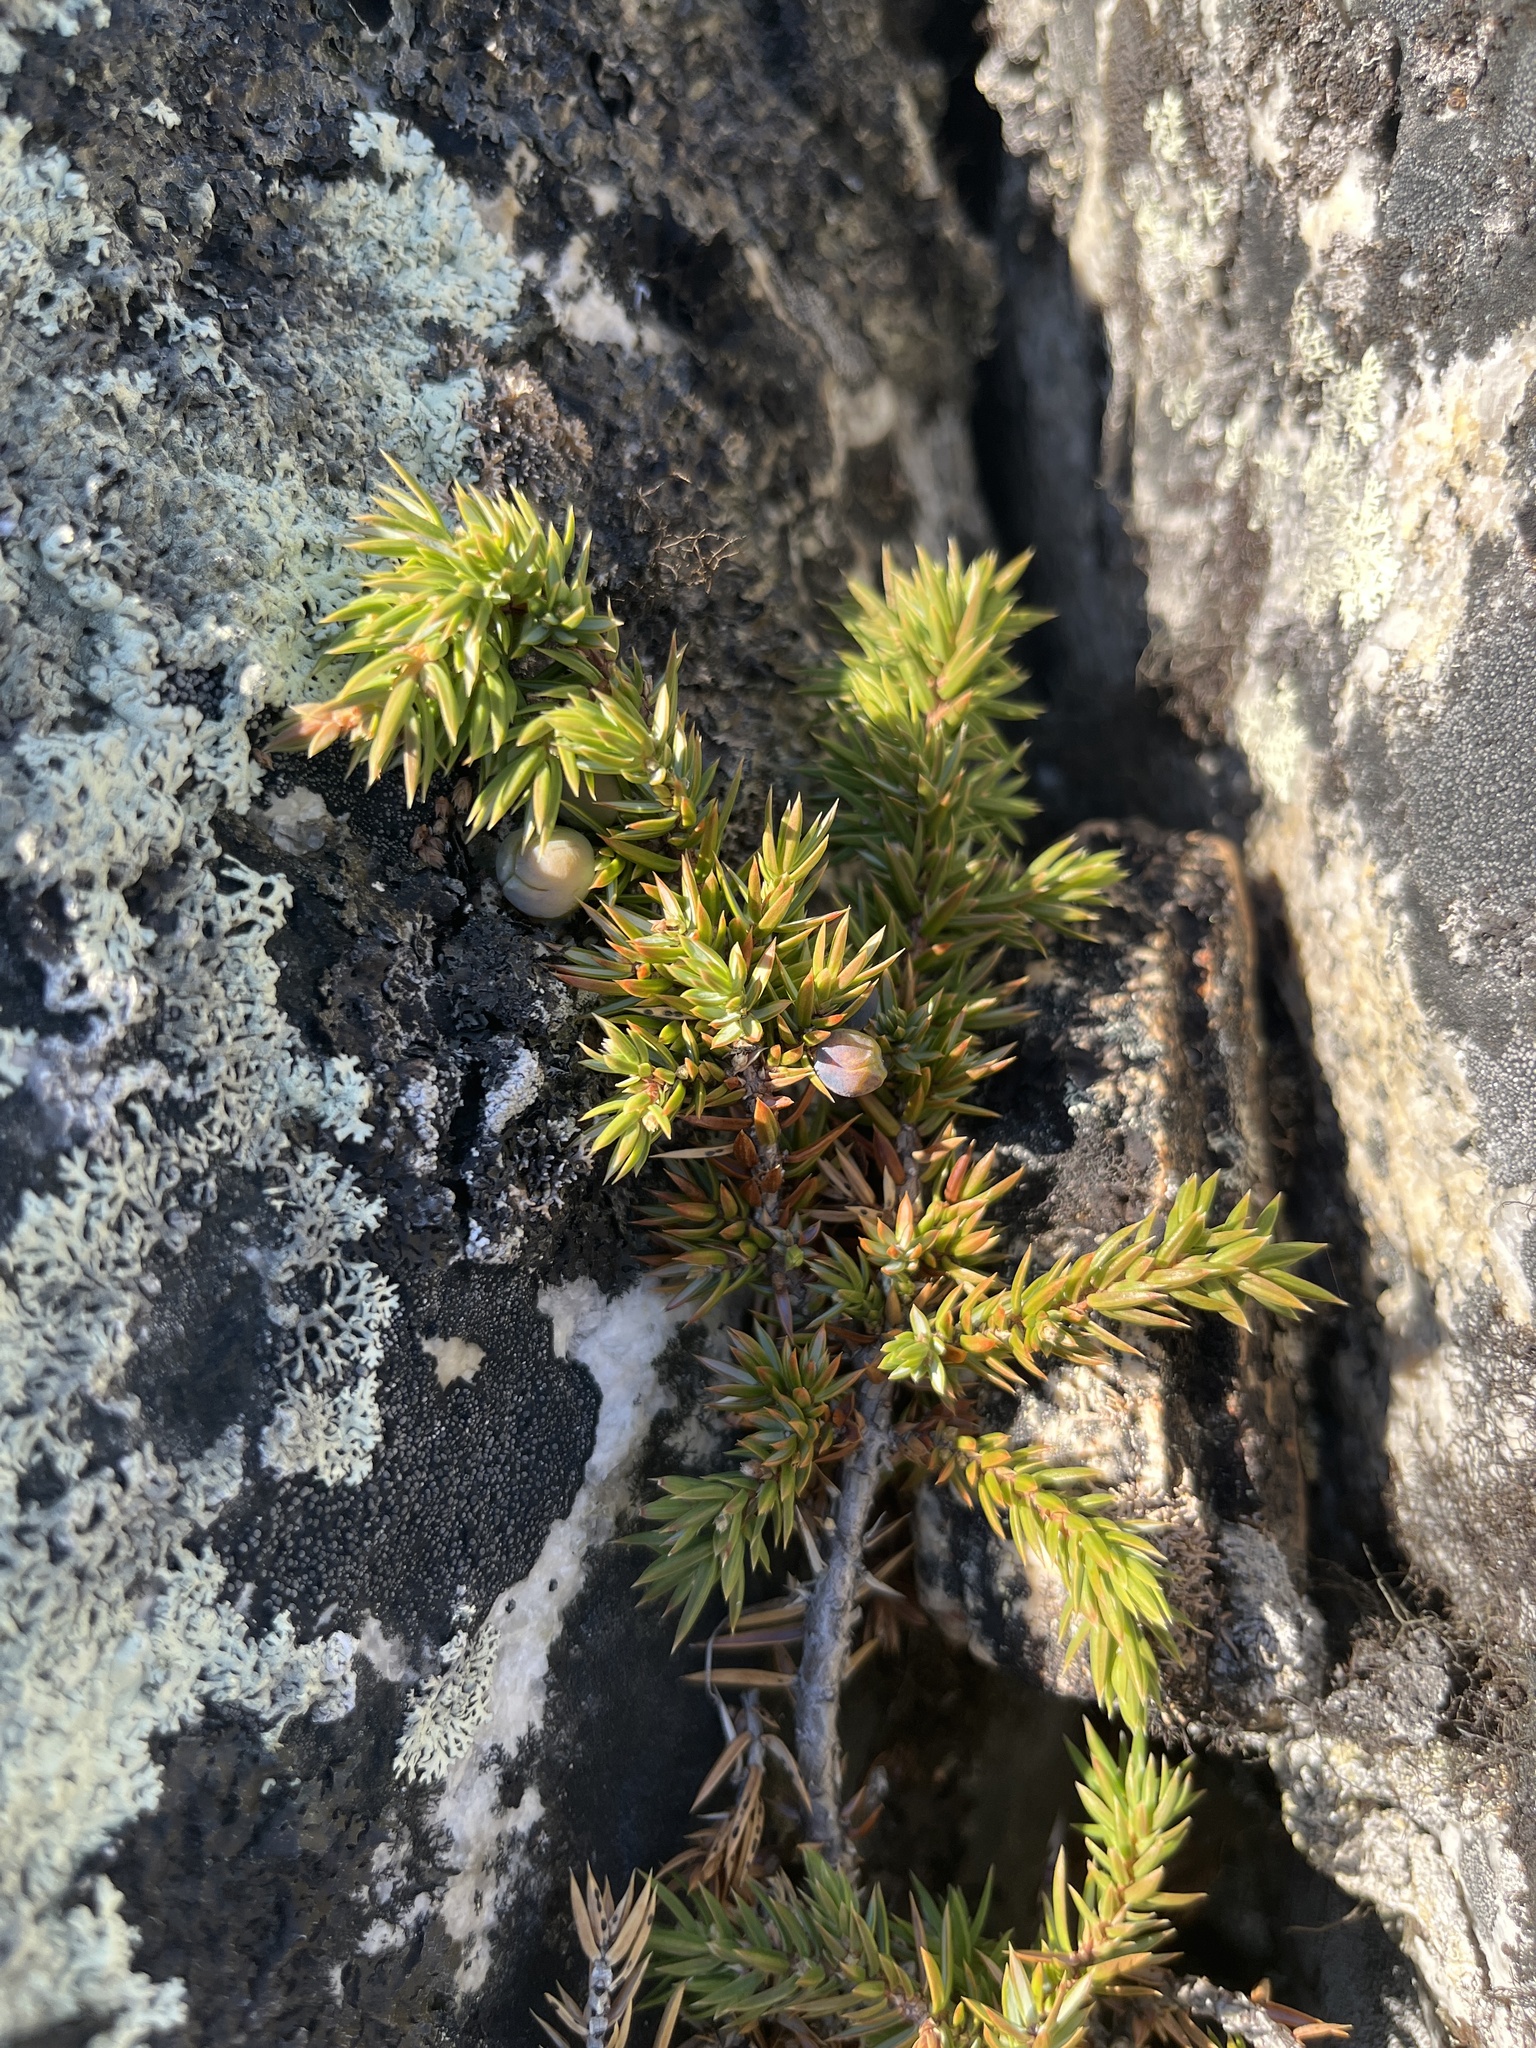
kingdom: Plantae
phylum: Tracheophyta
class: Pinopsida
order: Pinales
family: Cupressaceae
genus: Juniperus
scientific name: Juniperus communis
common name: Common juniper
